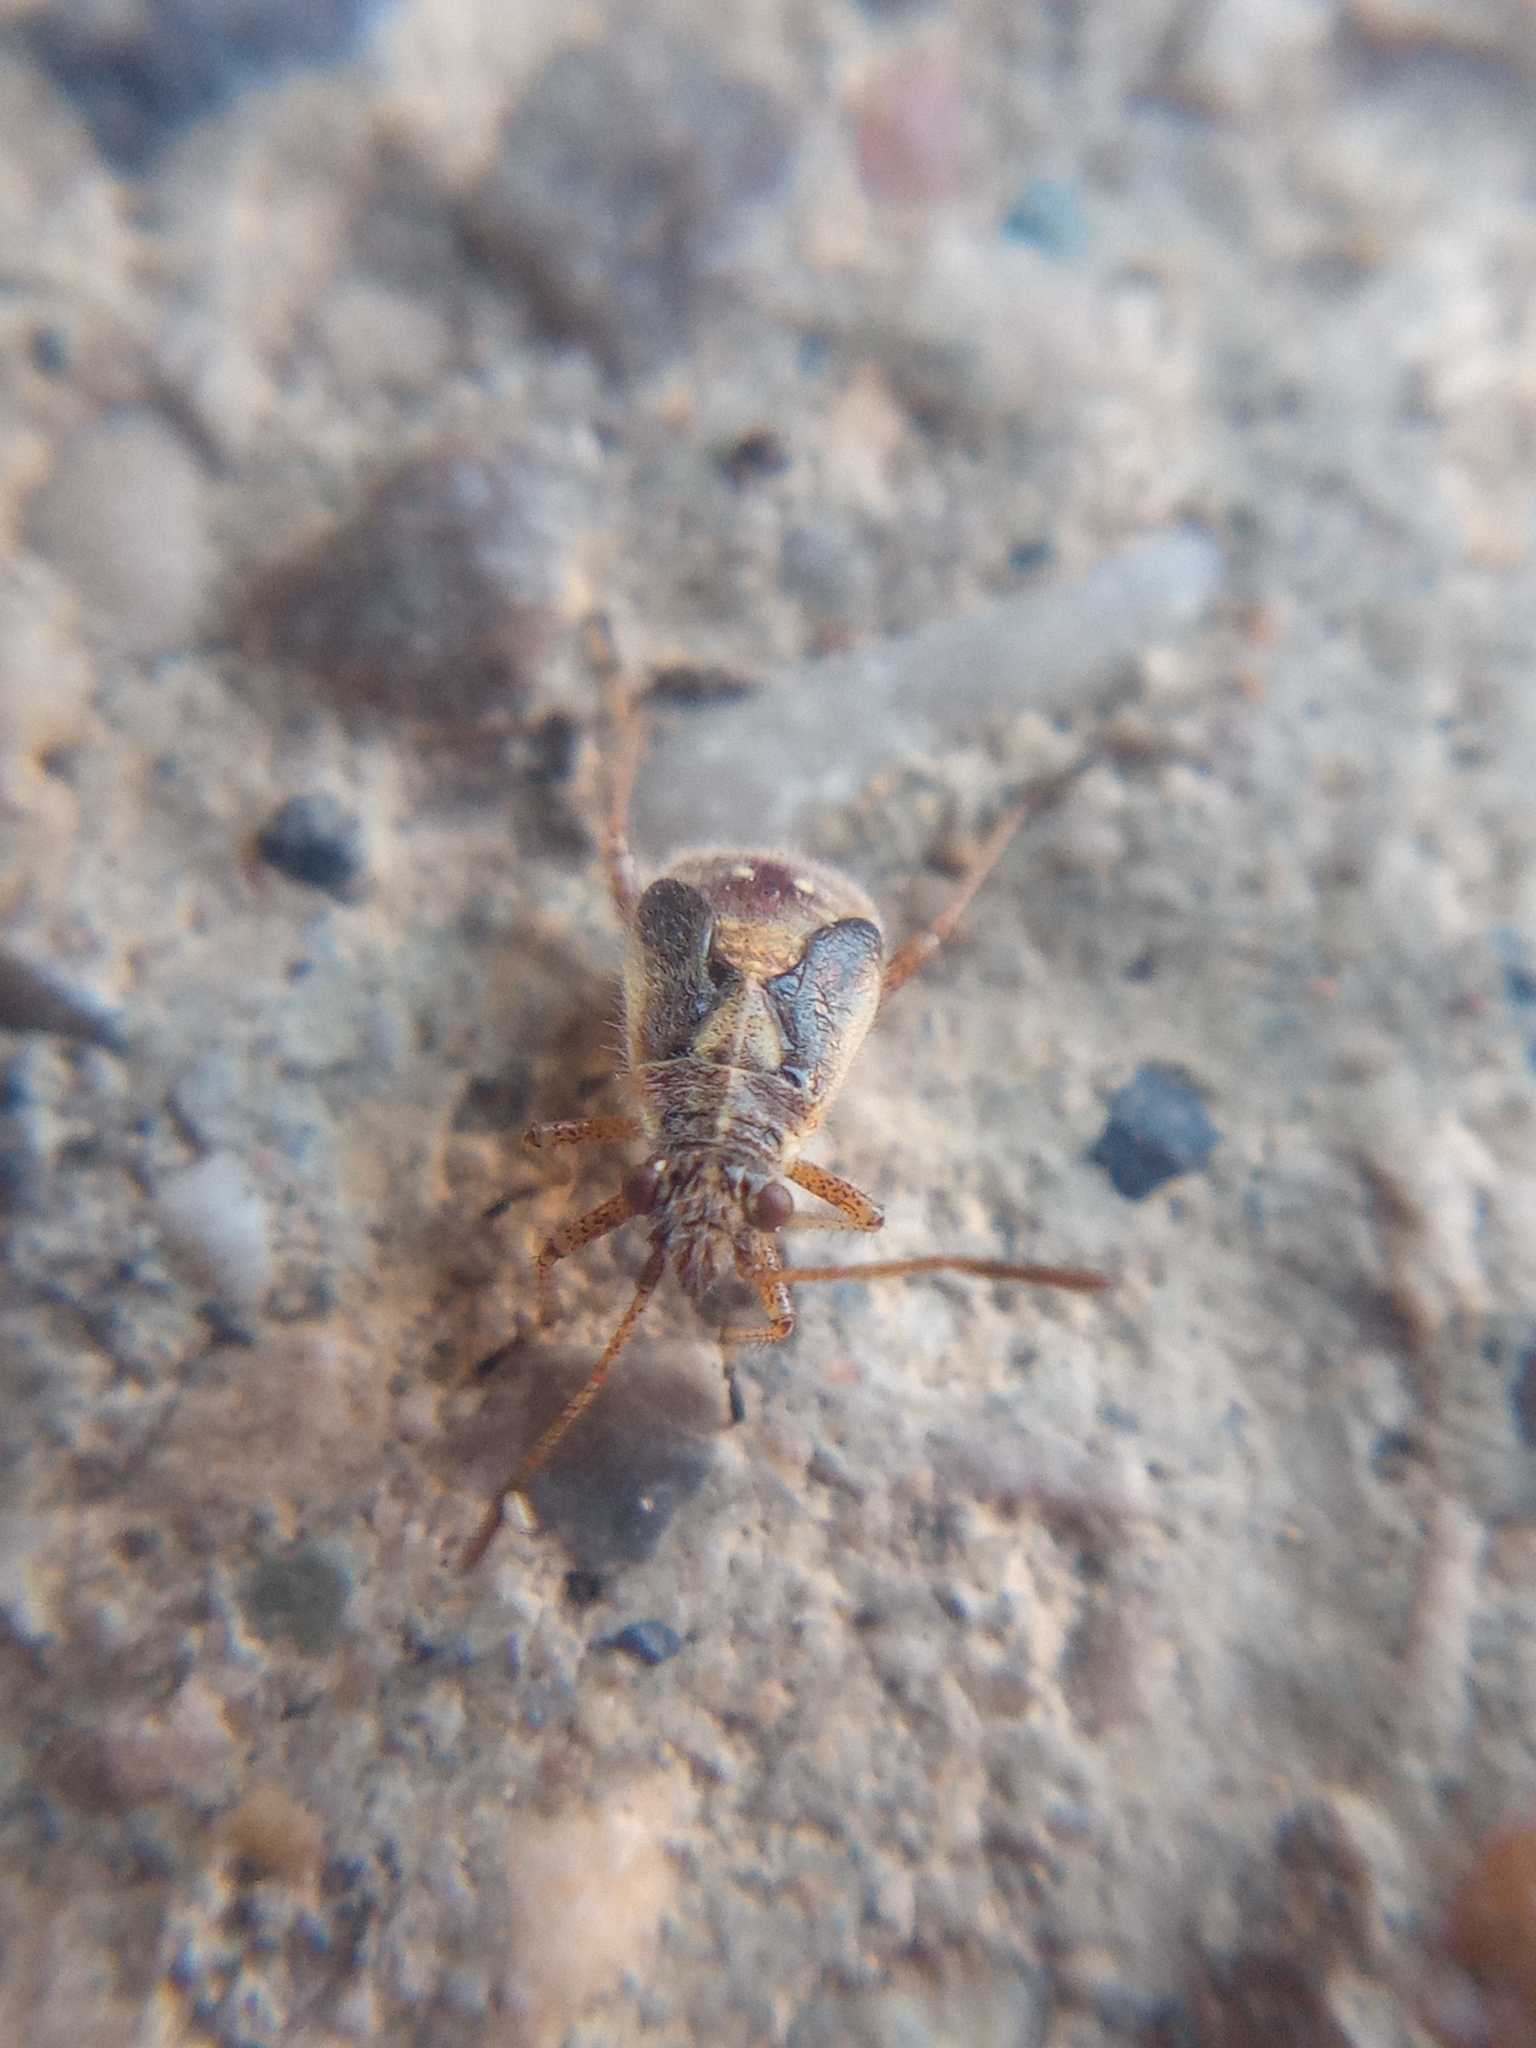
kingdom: Animalia
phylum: Arthropoda
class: Insecta
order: Hemiptera
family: Rhopalidae
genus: Liorhyssus
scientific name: Liorhyssus hyalinus
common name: Scentless plant bug
